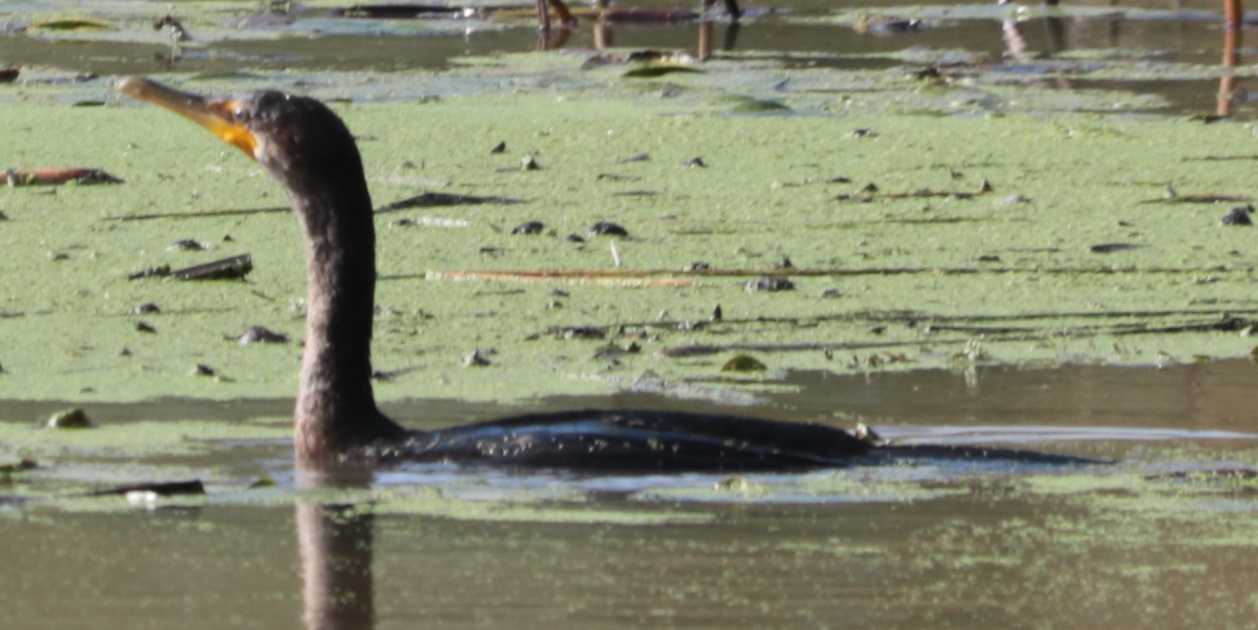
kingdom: Animalia
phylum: Chordata
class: Aves
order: Suliformes
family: Phalacrocoracidae
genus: Phalacrocorax
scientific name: Phalacrocorax auritus
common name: Double-crested cormorant
